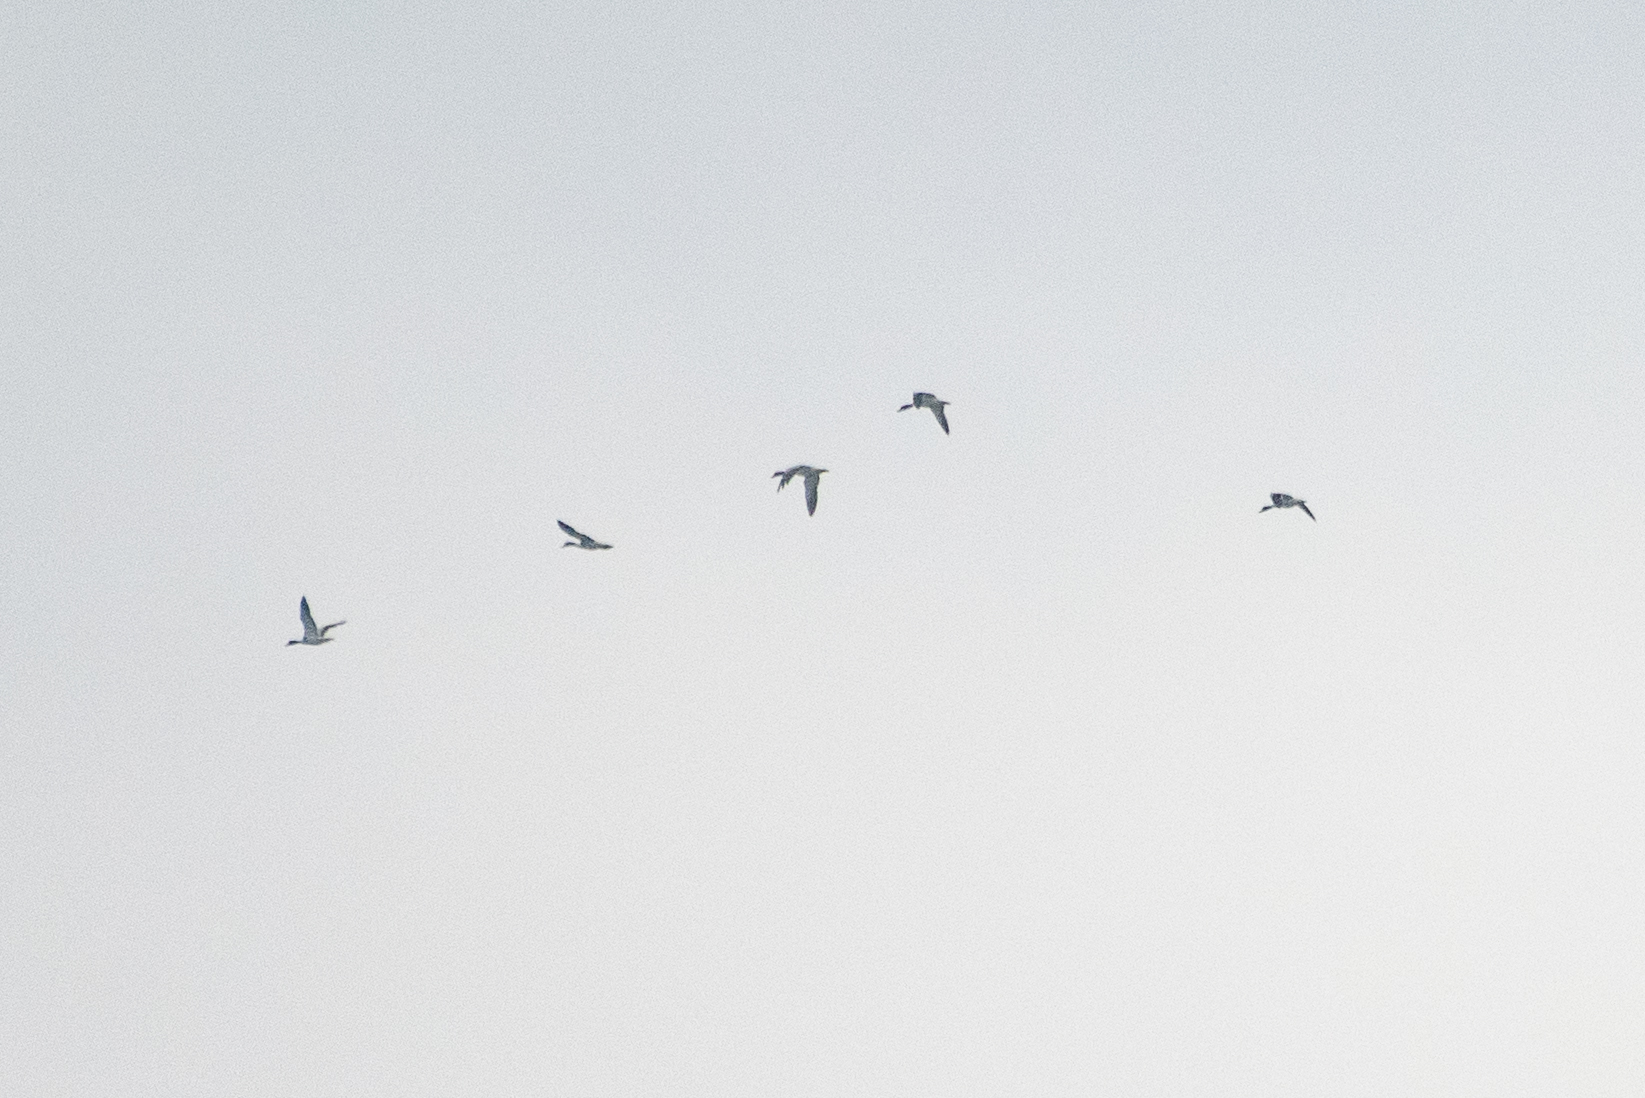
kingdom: Animalia
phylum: Chordata
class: Aves
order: Anseriformes
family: Anatidae
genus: Tadorna
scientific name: Tadorna tadorna
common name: Common shelduck
